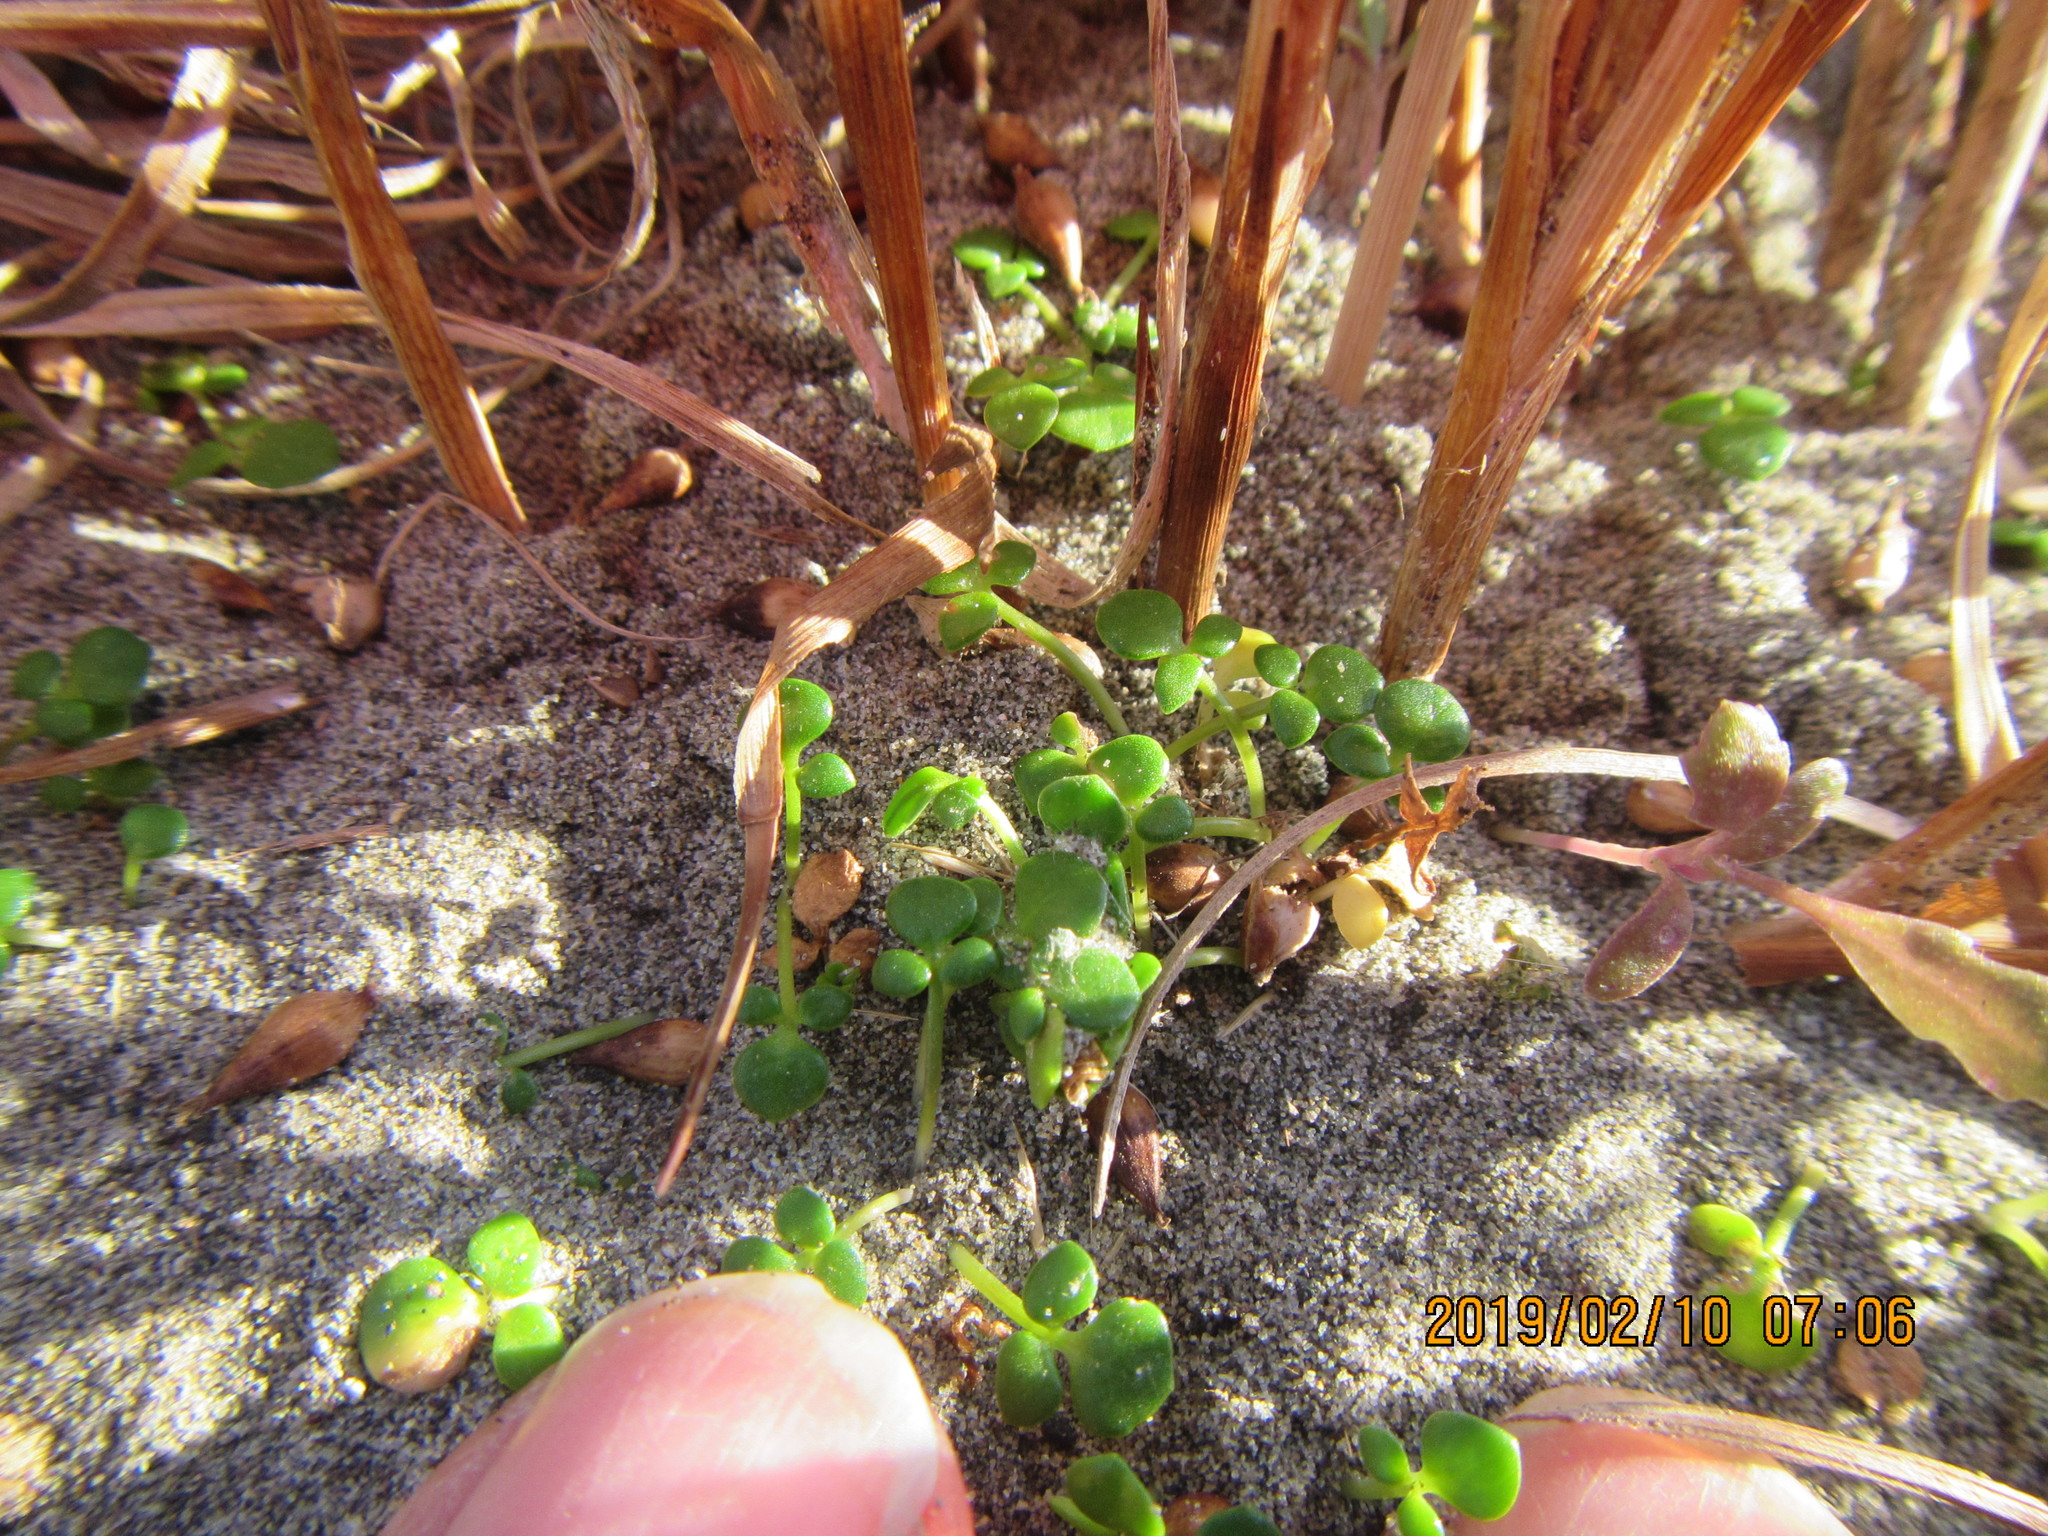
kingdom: Plantae
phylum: Tracheophyta
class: Magnoliopsida
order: Ranunculales
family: Ranunculaceae
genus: Ranunculus
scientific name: Ranunculus acaulis
